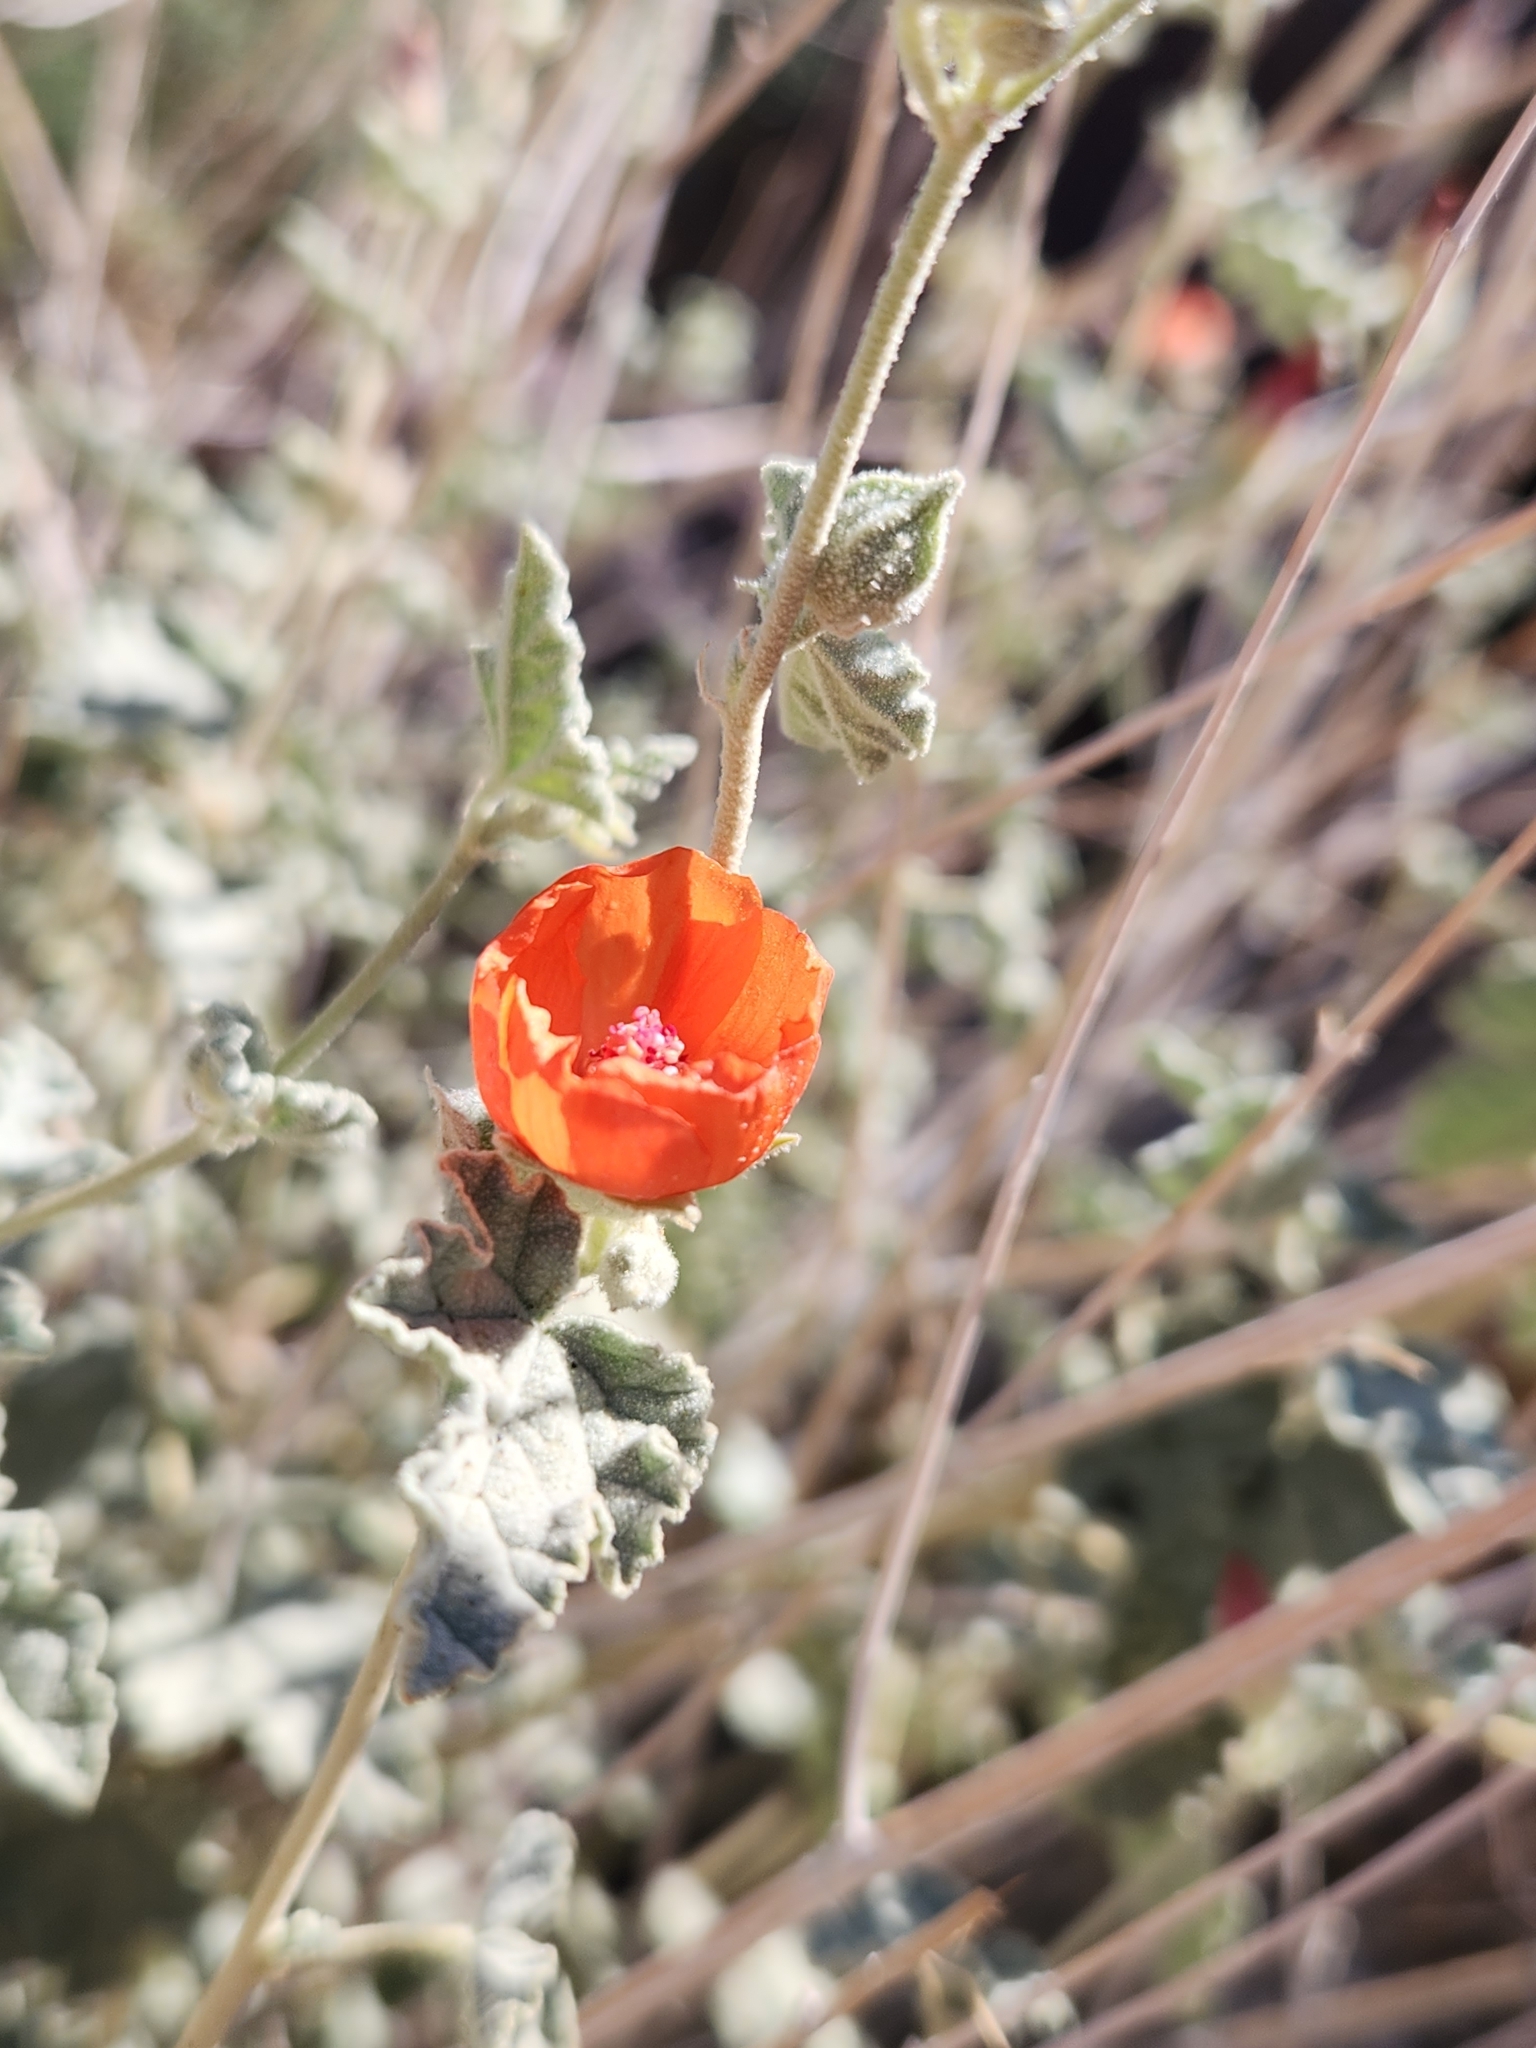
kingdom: Plantae
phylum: Tracheophyta
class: Magnoliopsida
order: Malvales
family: Malvaceae
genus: Sphaeralcea
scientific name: Sphaeralcea ambigua
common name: Apricot globe-mallow
